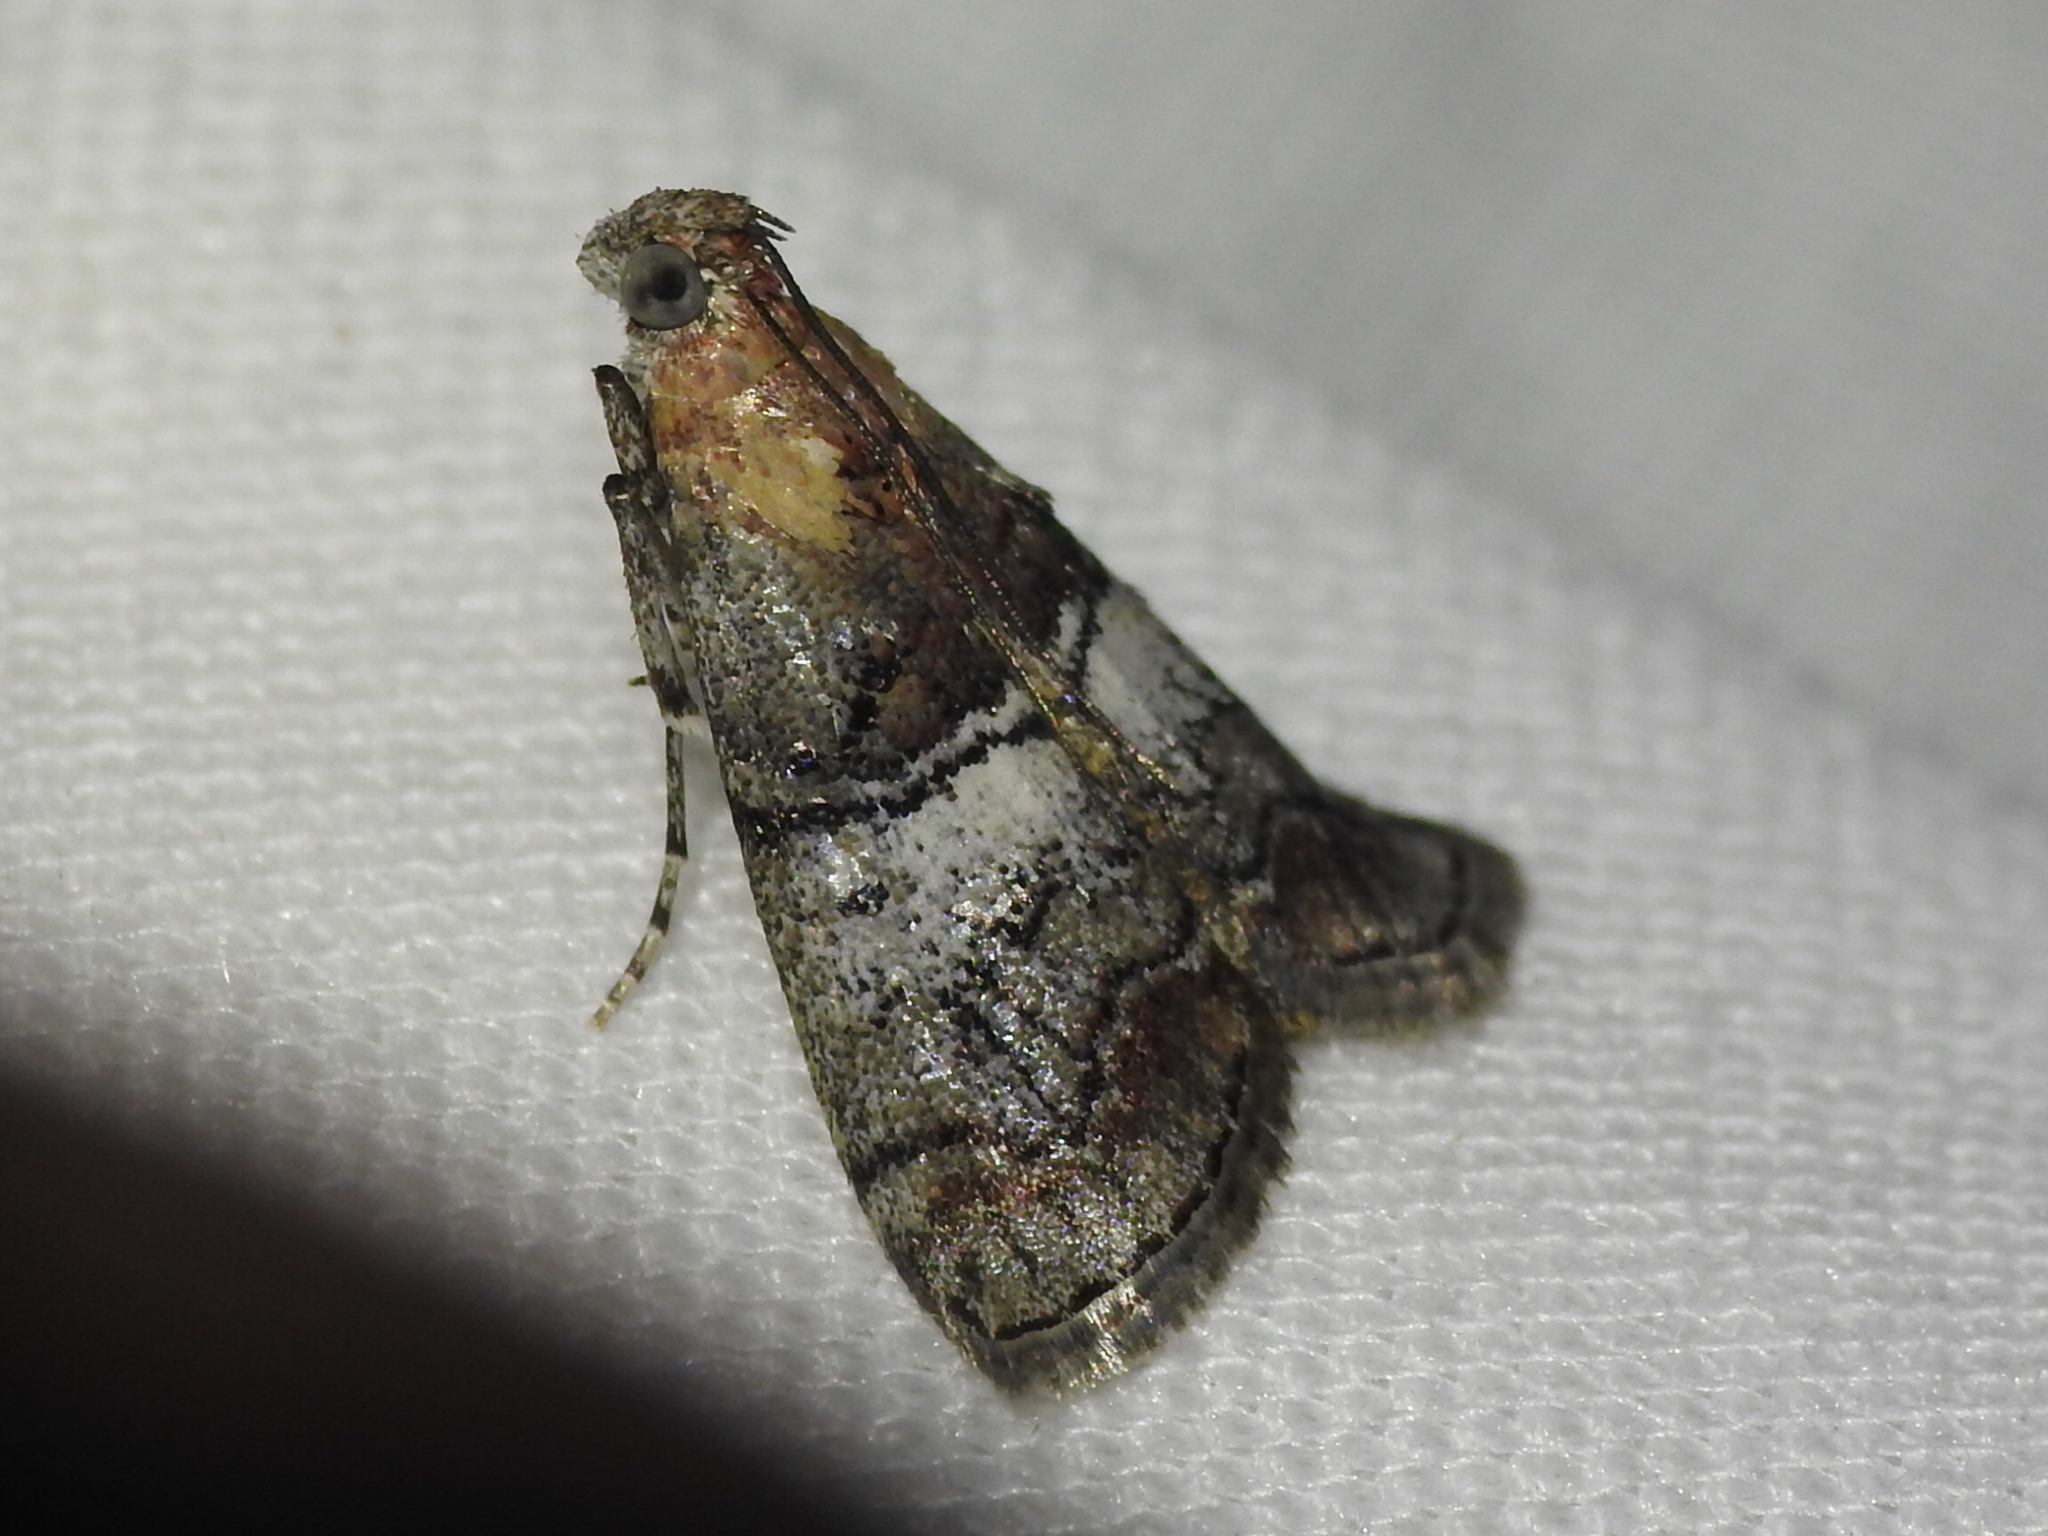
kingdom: Animalia
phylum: Arthropoda
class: Insecta
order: Lepidoptera
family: Pyralidae
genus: Pococera
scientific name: Pococera asperatella
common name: Maple webworm moth
